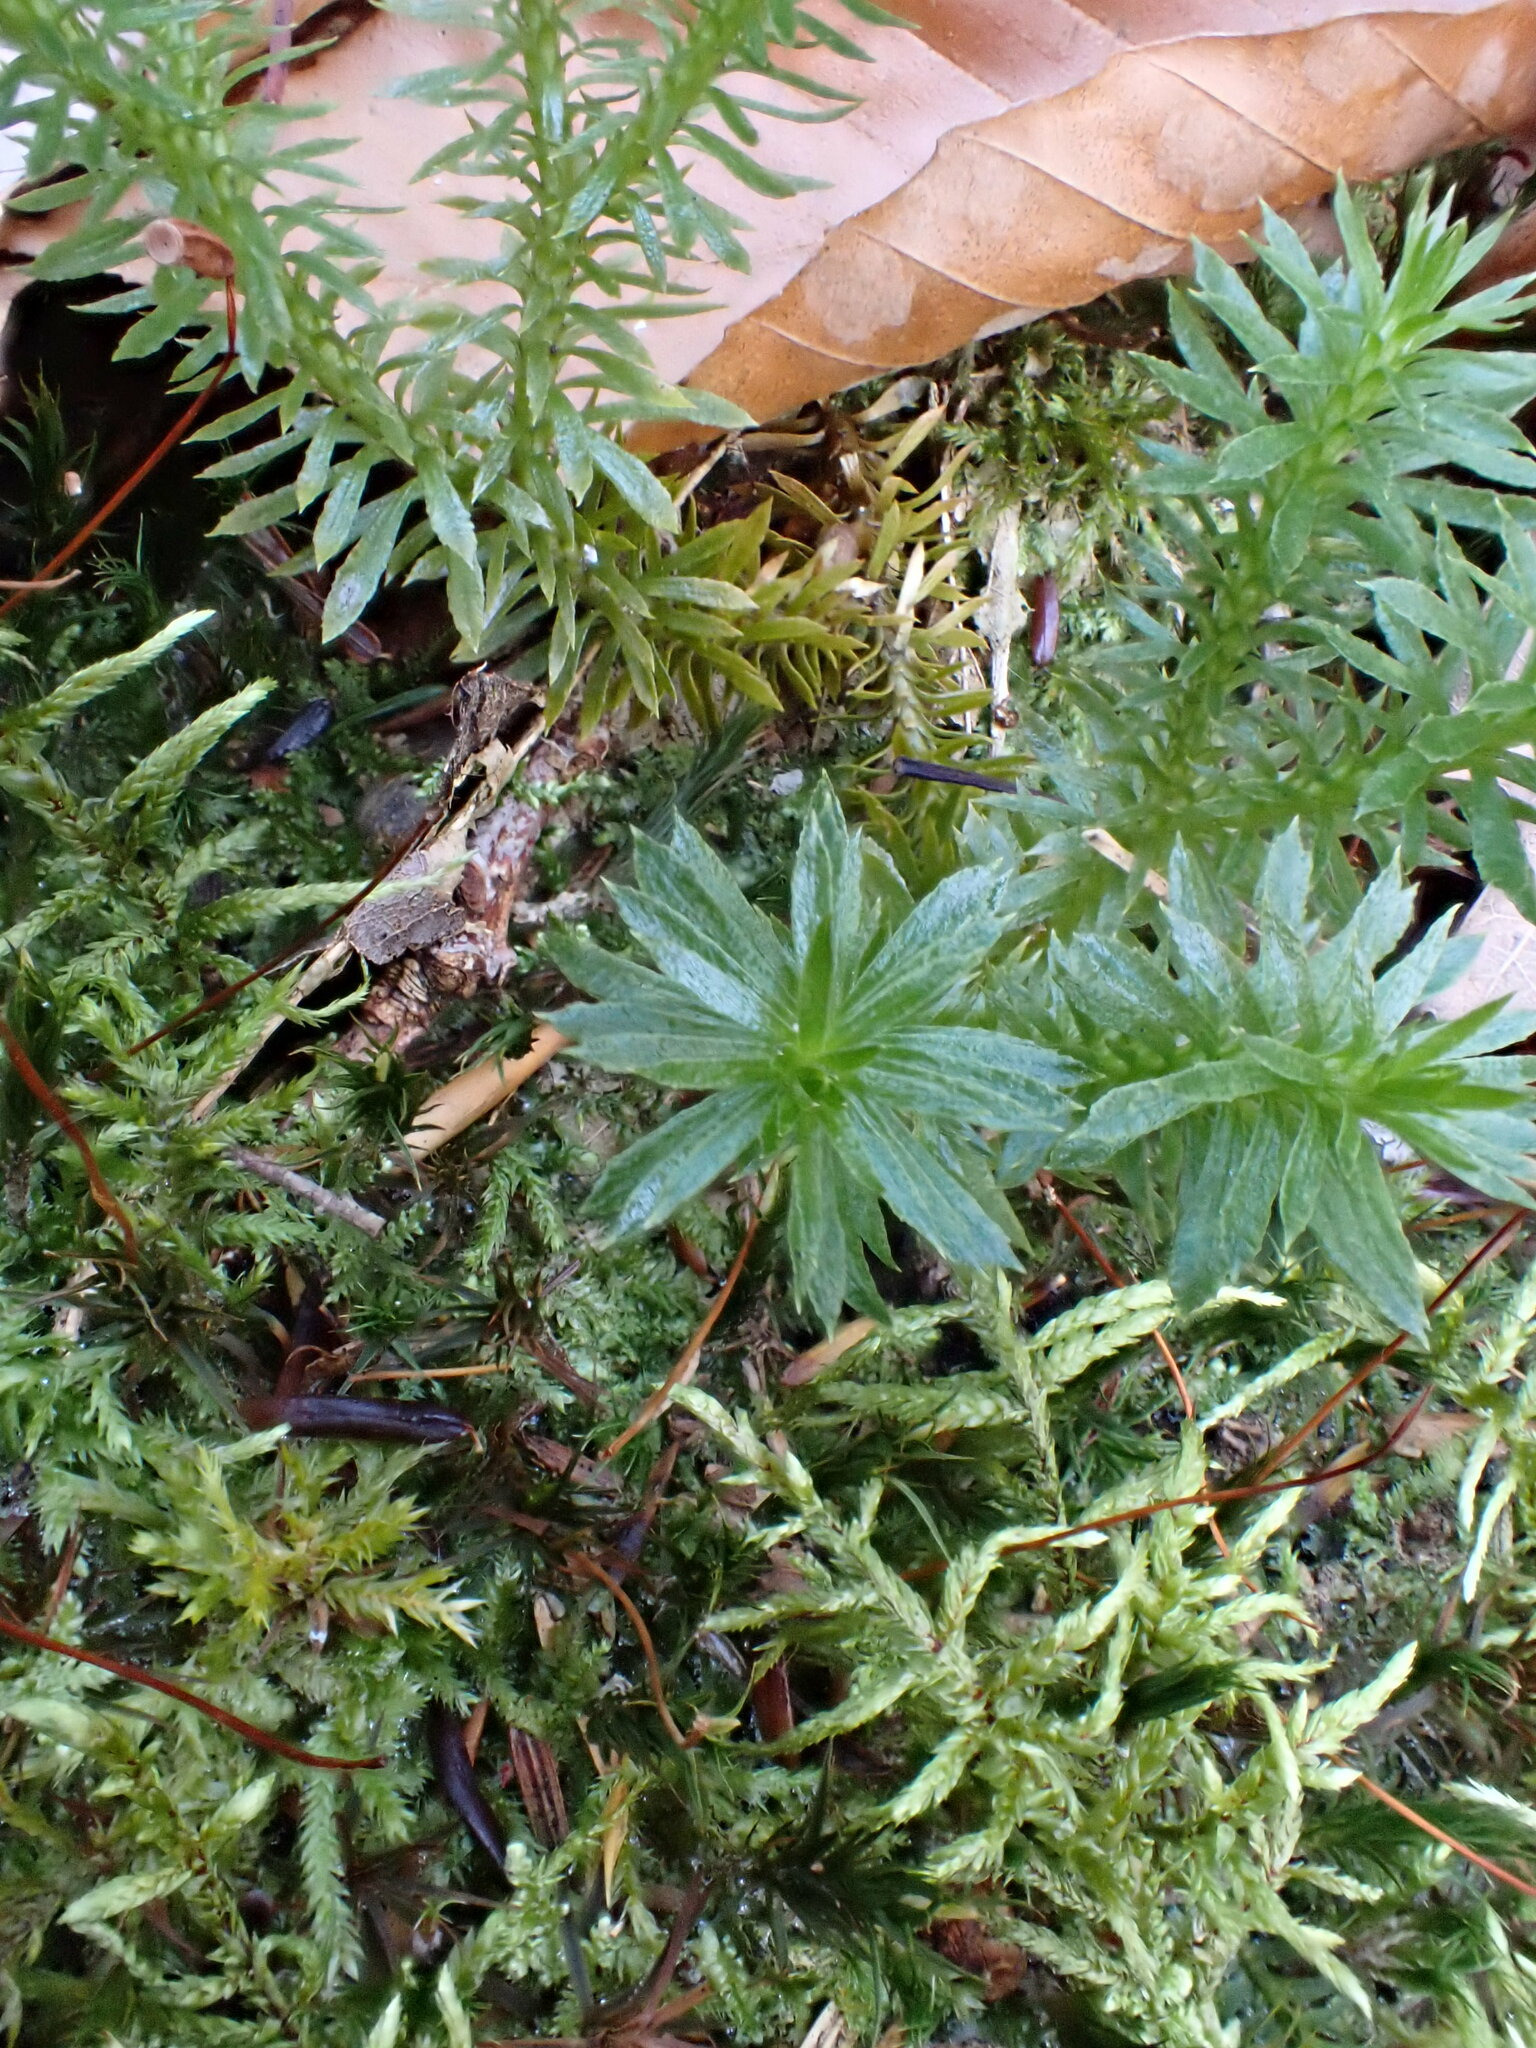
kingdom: Plantae
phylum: Tracheophyta
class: Lycopodiopsida
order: Lycopodiales
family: Lycopodiaceae
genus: Huperzia
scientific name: Huperzia lucidula
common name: Shining clubmoss
